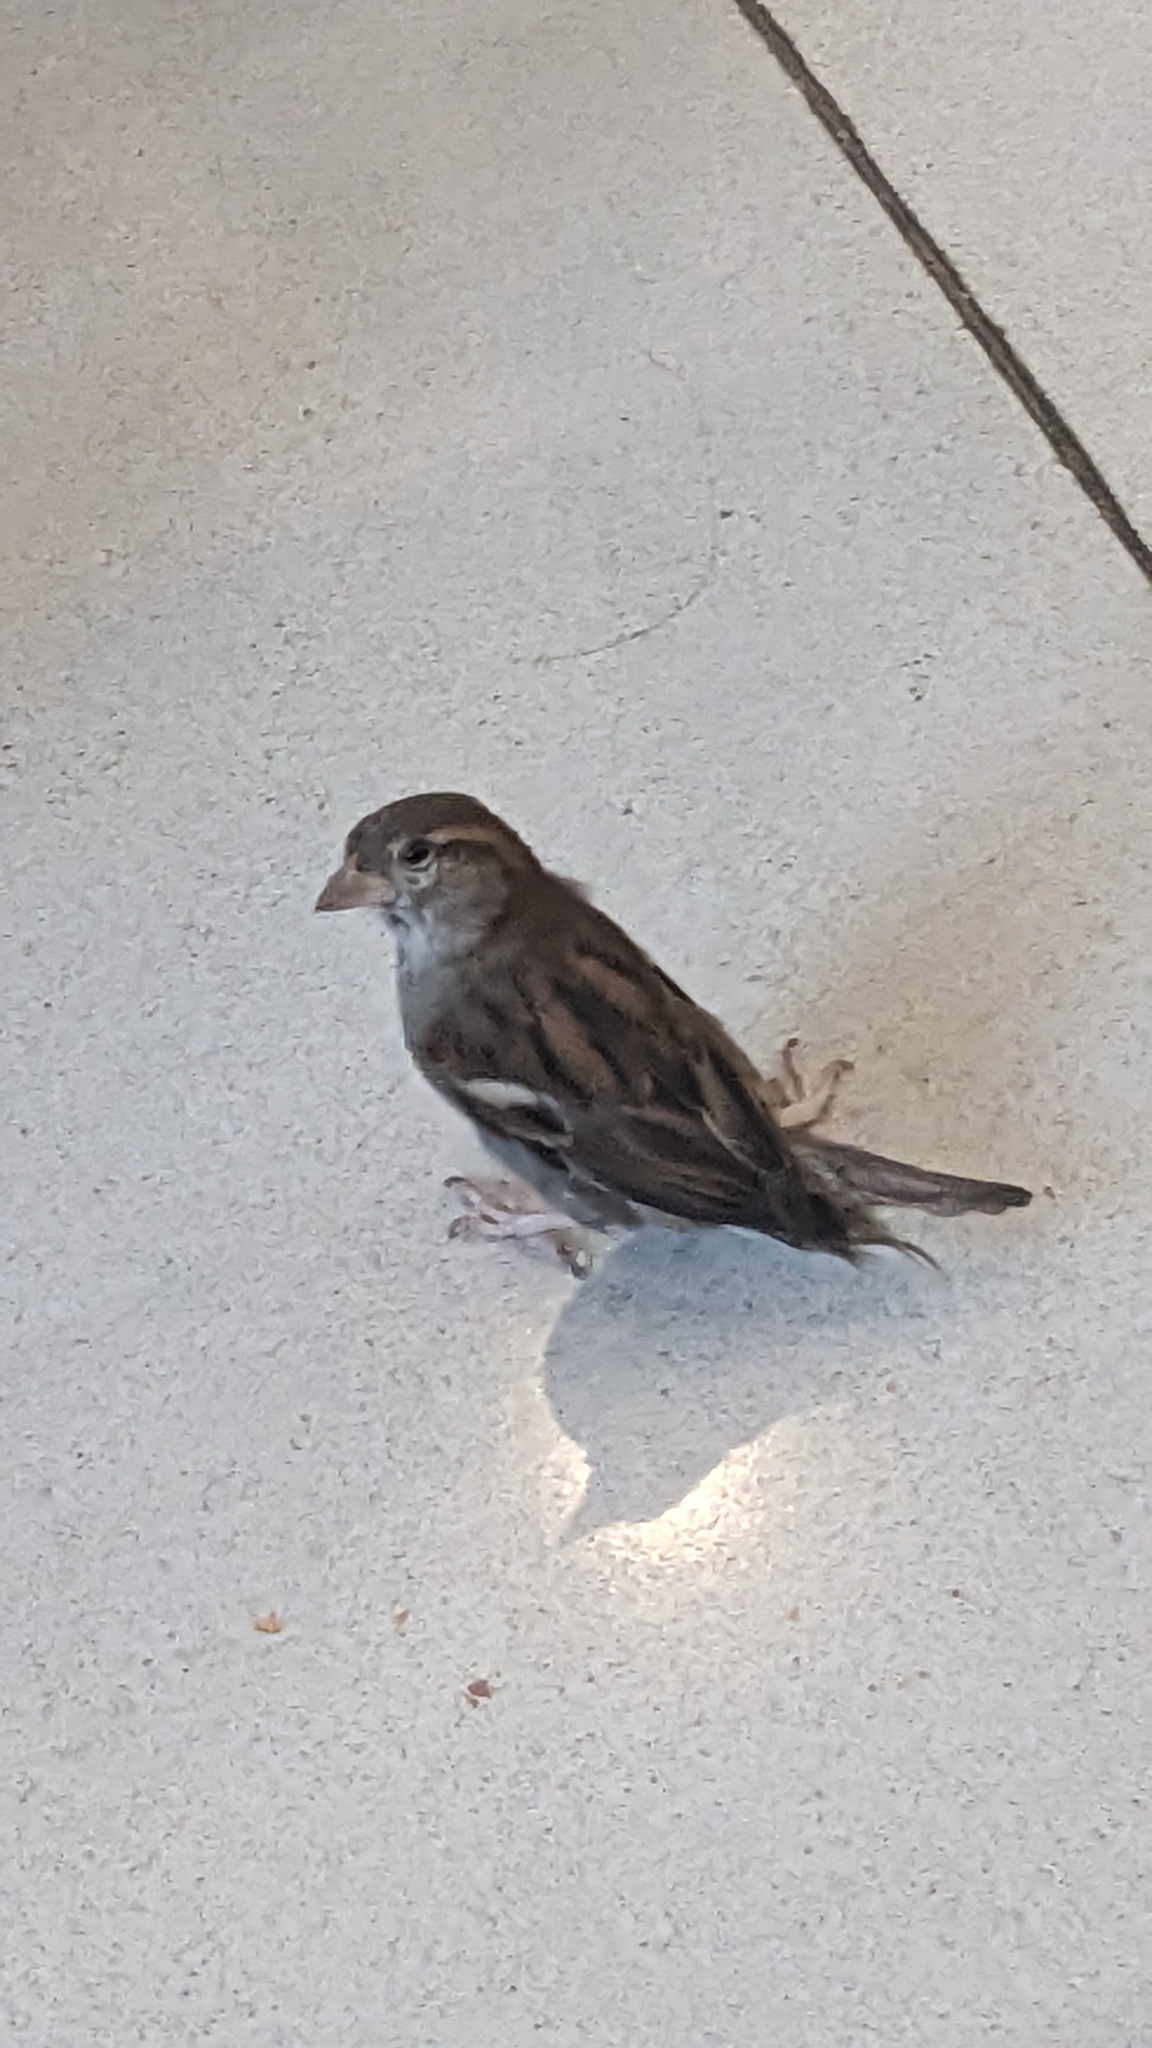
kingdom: Animalia
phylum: Chordata
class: Aves
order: Passeriformes
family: Passeridae
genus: Passer
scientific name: Passer domesticus
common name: House sparrow
